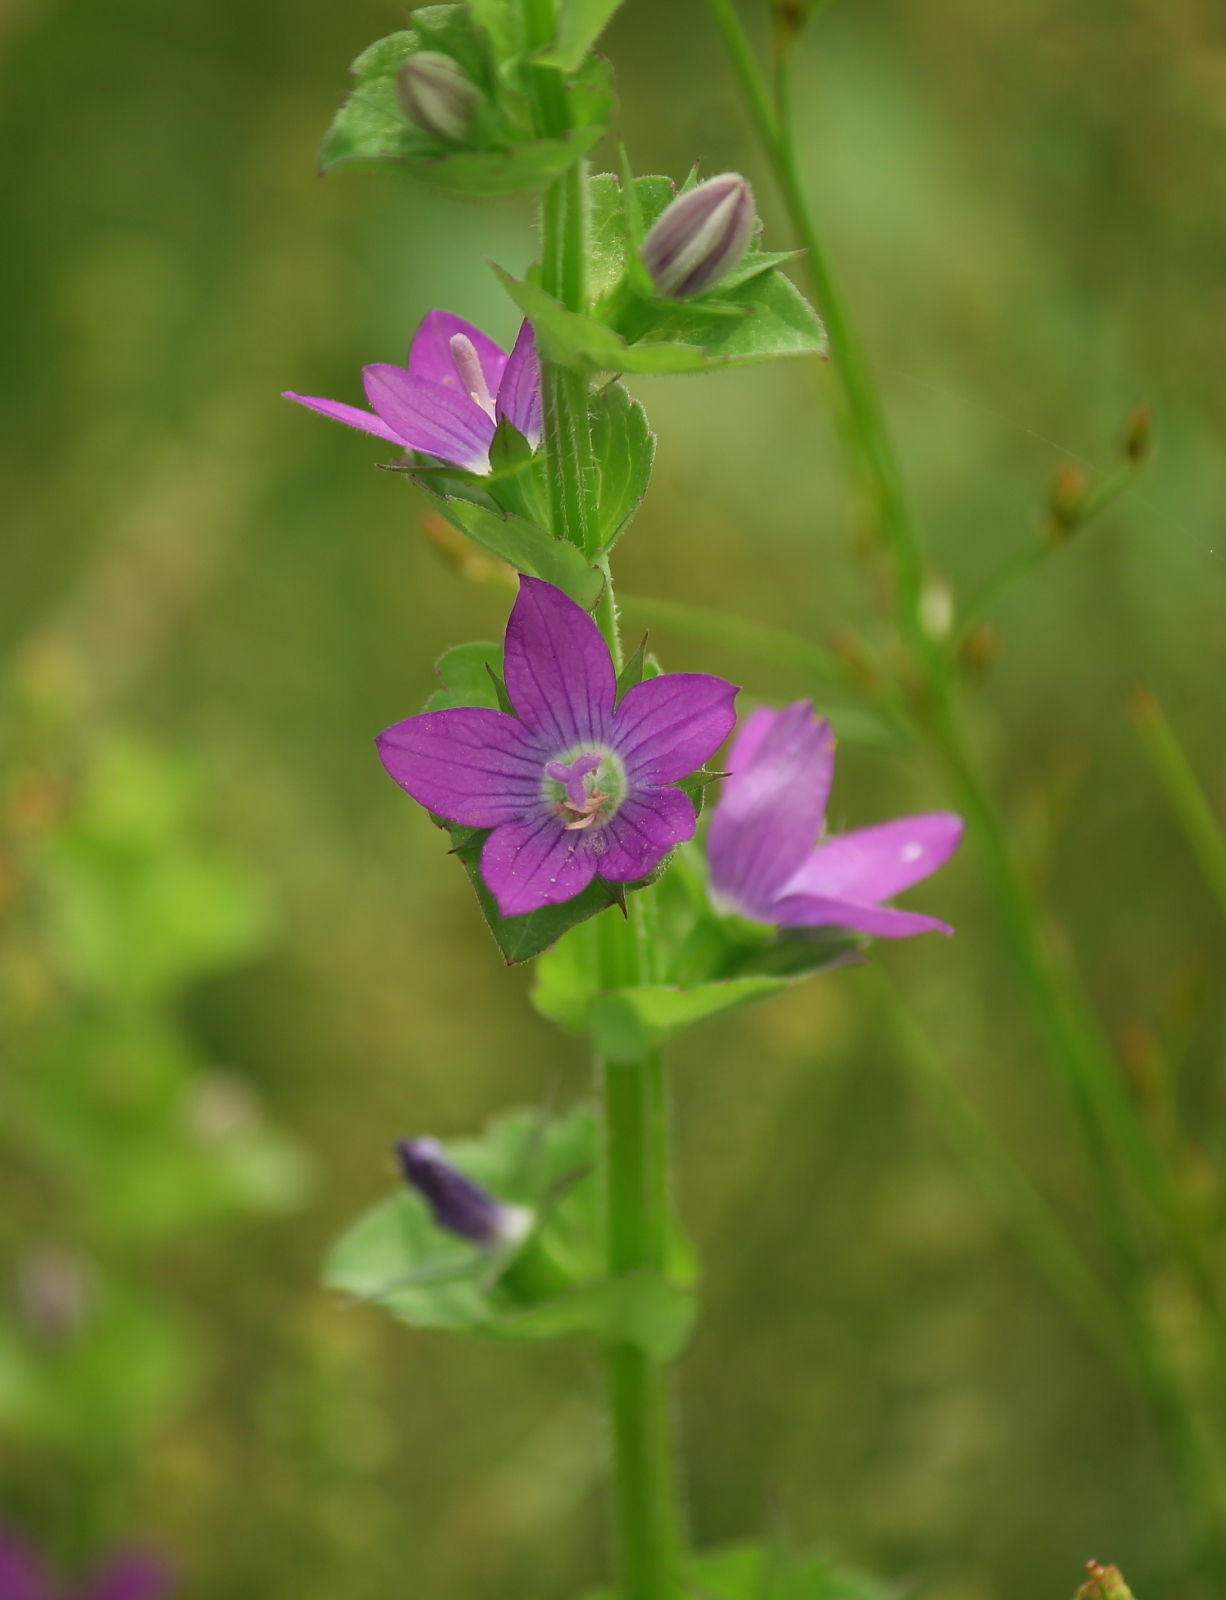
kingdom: Plantae
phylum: Tracheophyta
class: Magnoliopsida
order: Asterales
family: Campanulaceae
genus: Triodanis
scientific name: Triodanis perfoliata
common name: Clasping venus' looking-glass
